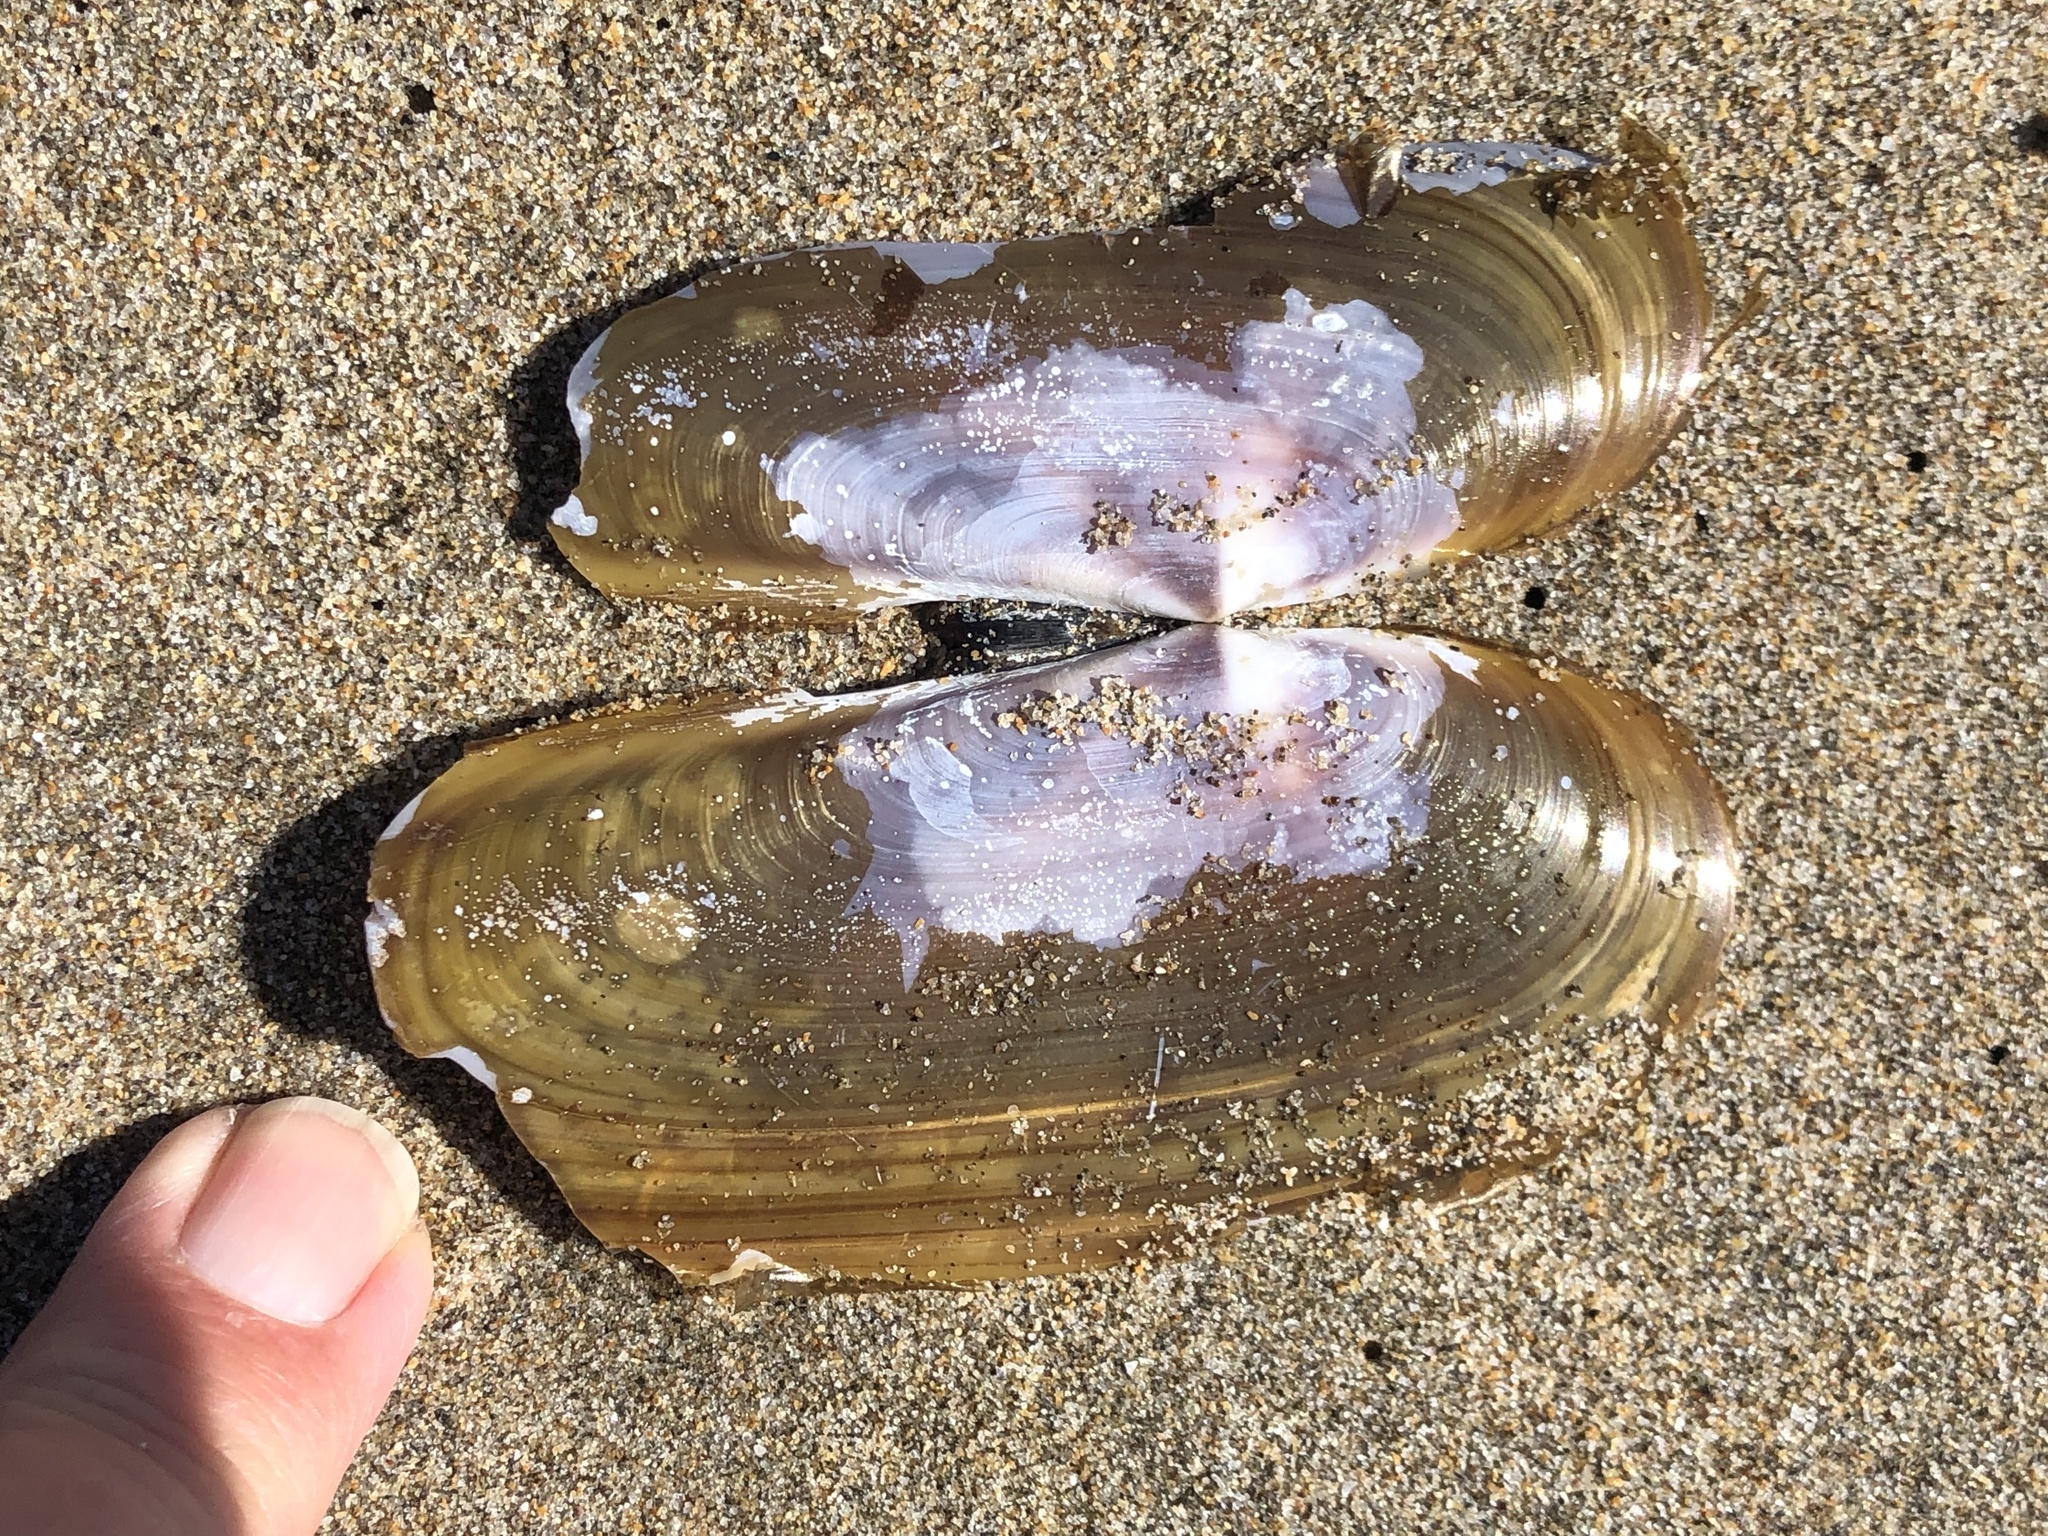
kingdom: Animalia
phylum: Mollusca
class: Bivalvia
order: Adapedonta
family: Pharidae
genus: Siliqua
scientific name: Siliqua patula
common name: Pacific razor clam
